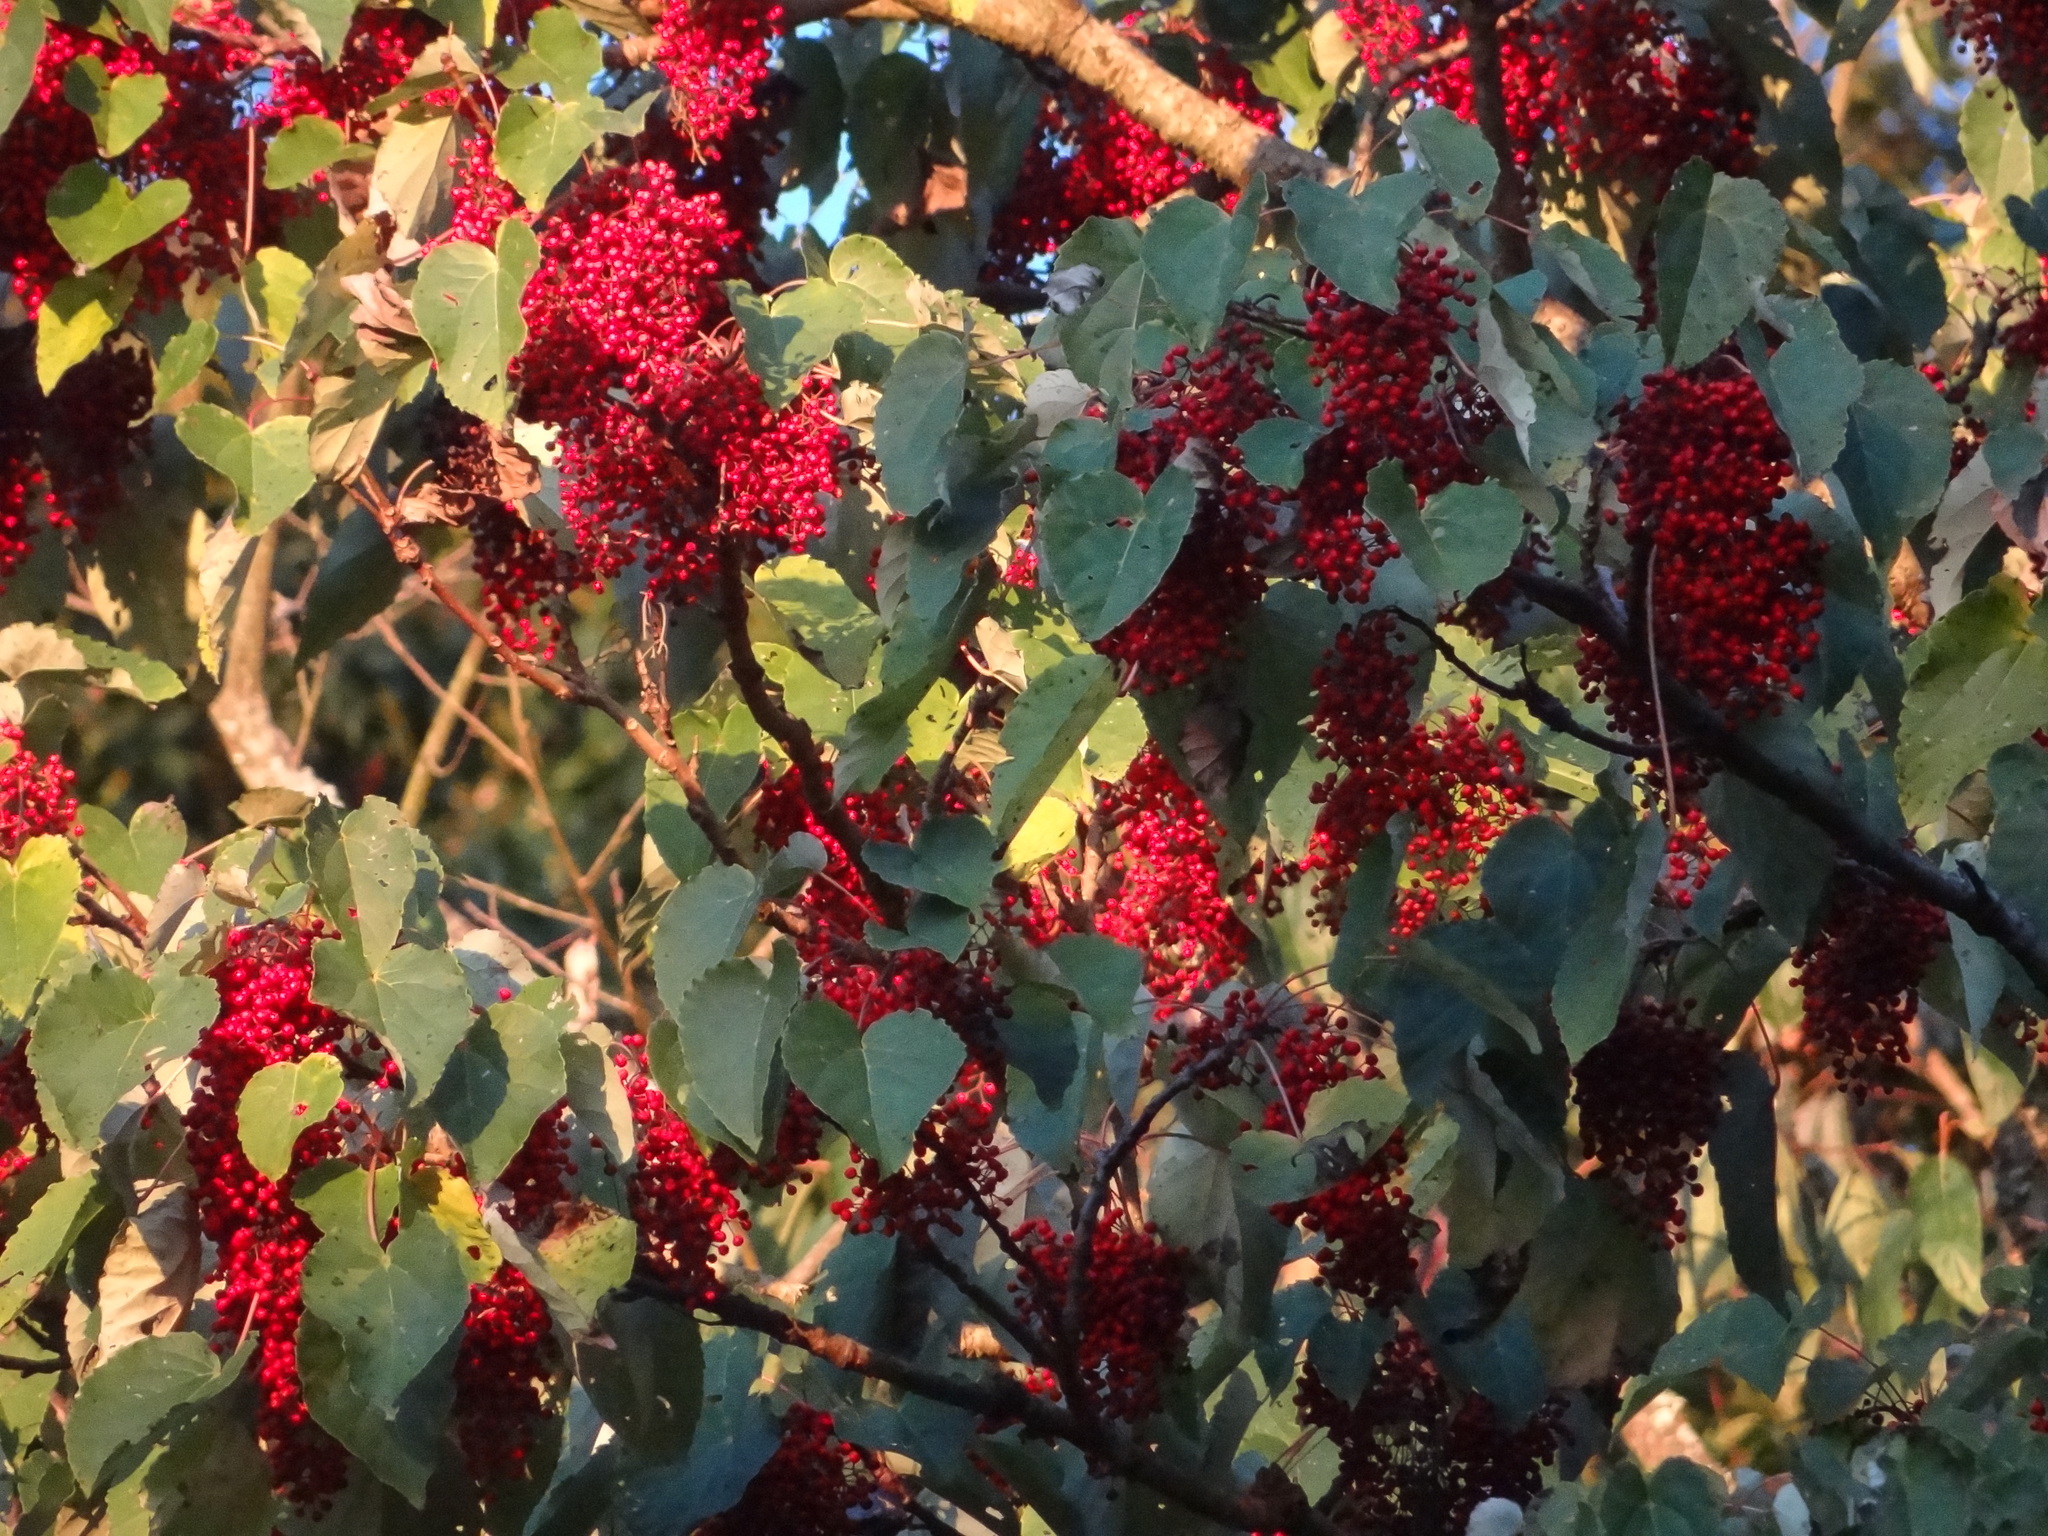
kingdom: Plantae
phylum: Tracheophyta
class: Magnoliopsida
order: Malpighiales
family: Salicaceae
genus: Idesia
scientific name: Idesia polycarpa
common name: Idesia tree
